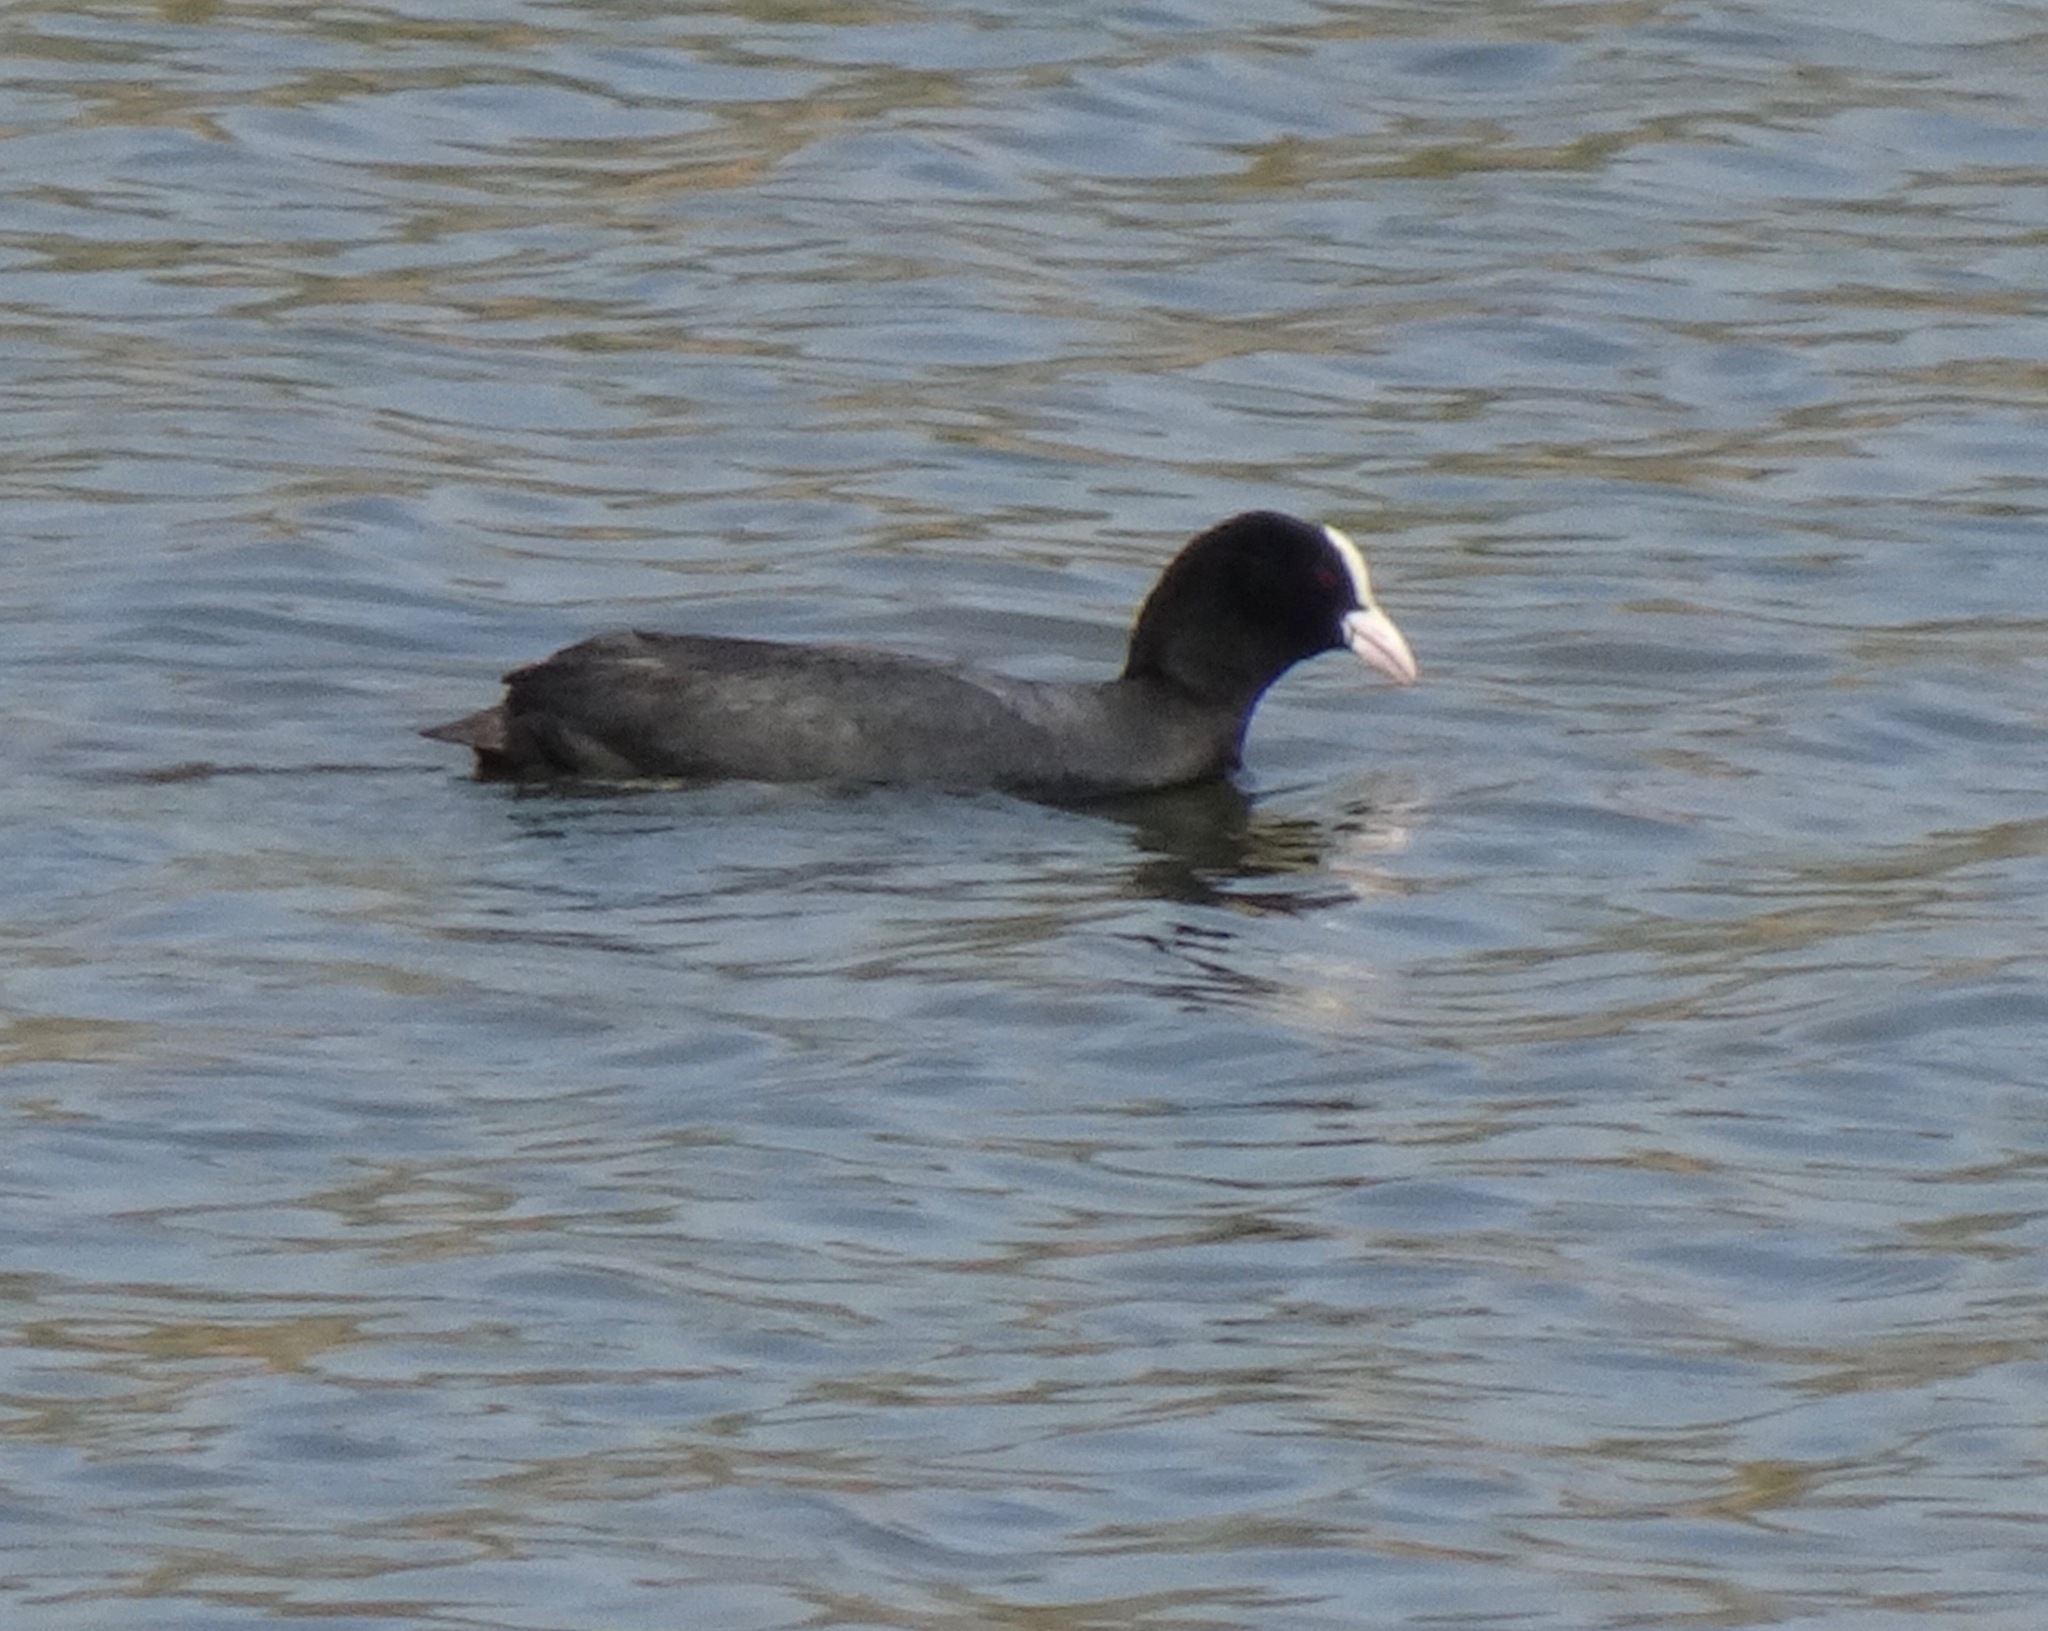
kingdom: Animalia
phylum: Chordata
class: Aves
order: Gruiformes
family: Rallidae
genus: Fulica
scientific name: Fulica atra
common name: Eurasian coot
